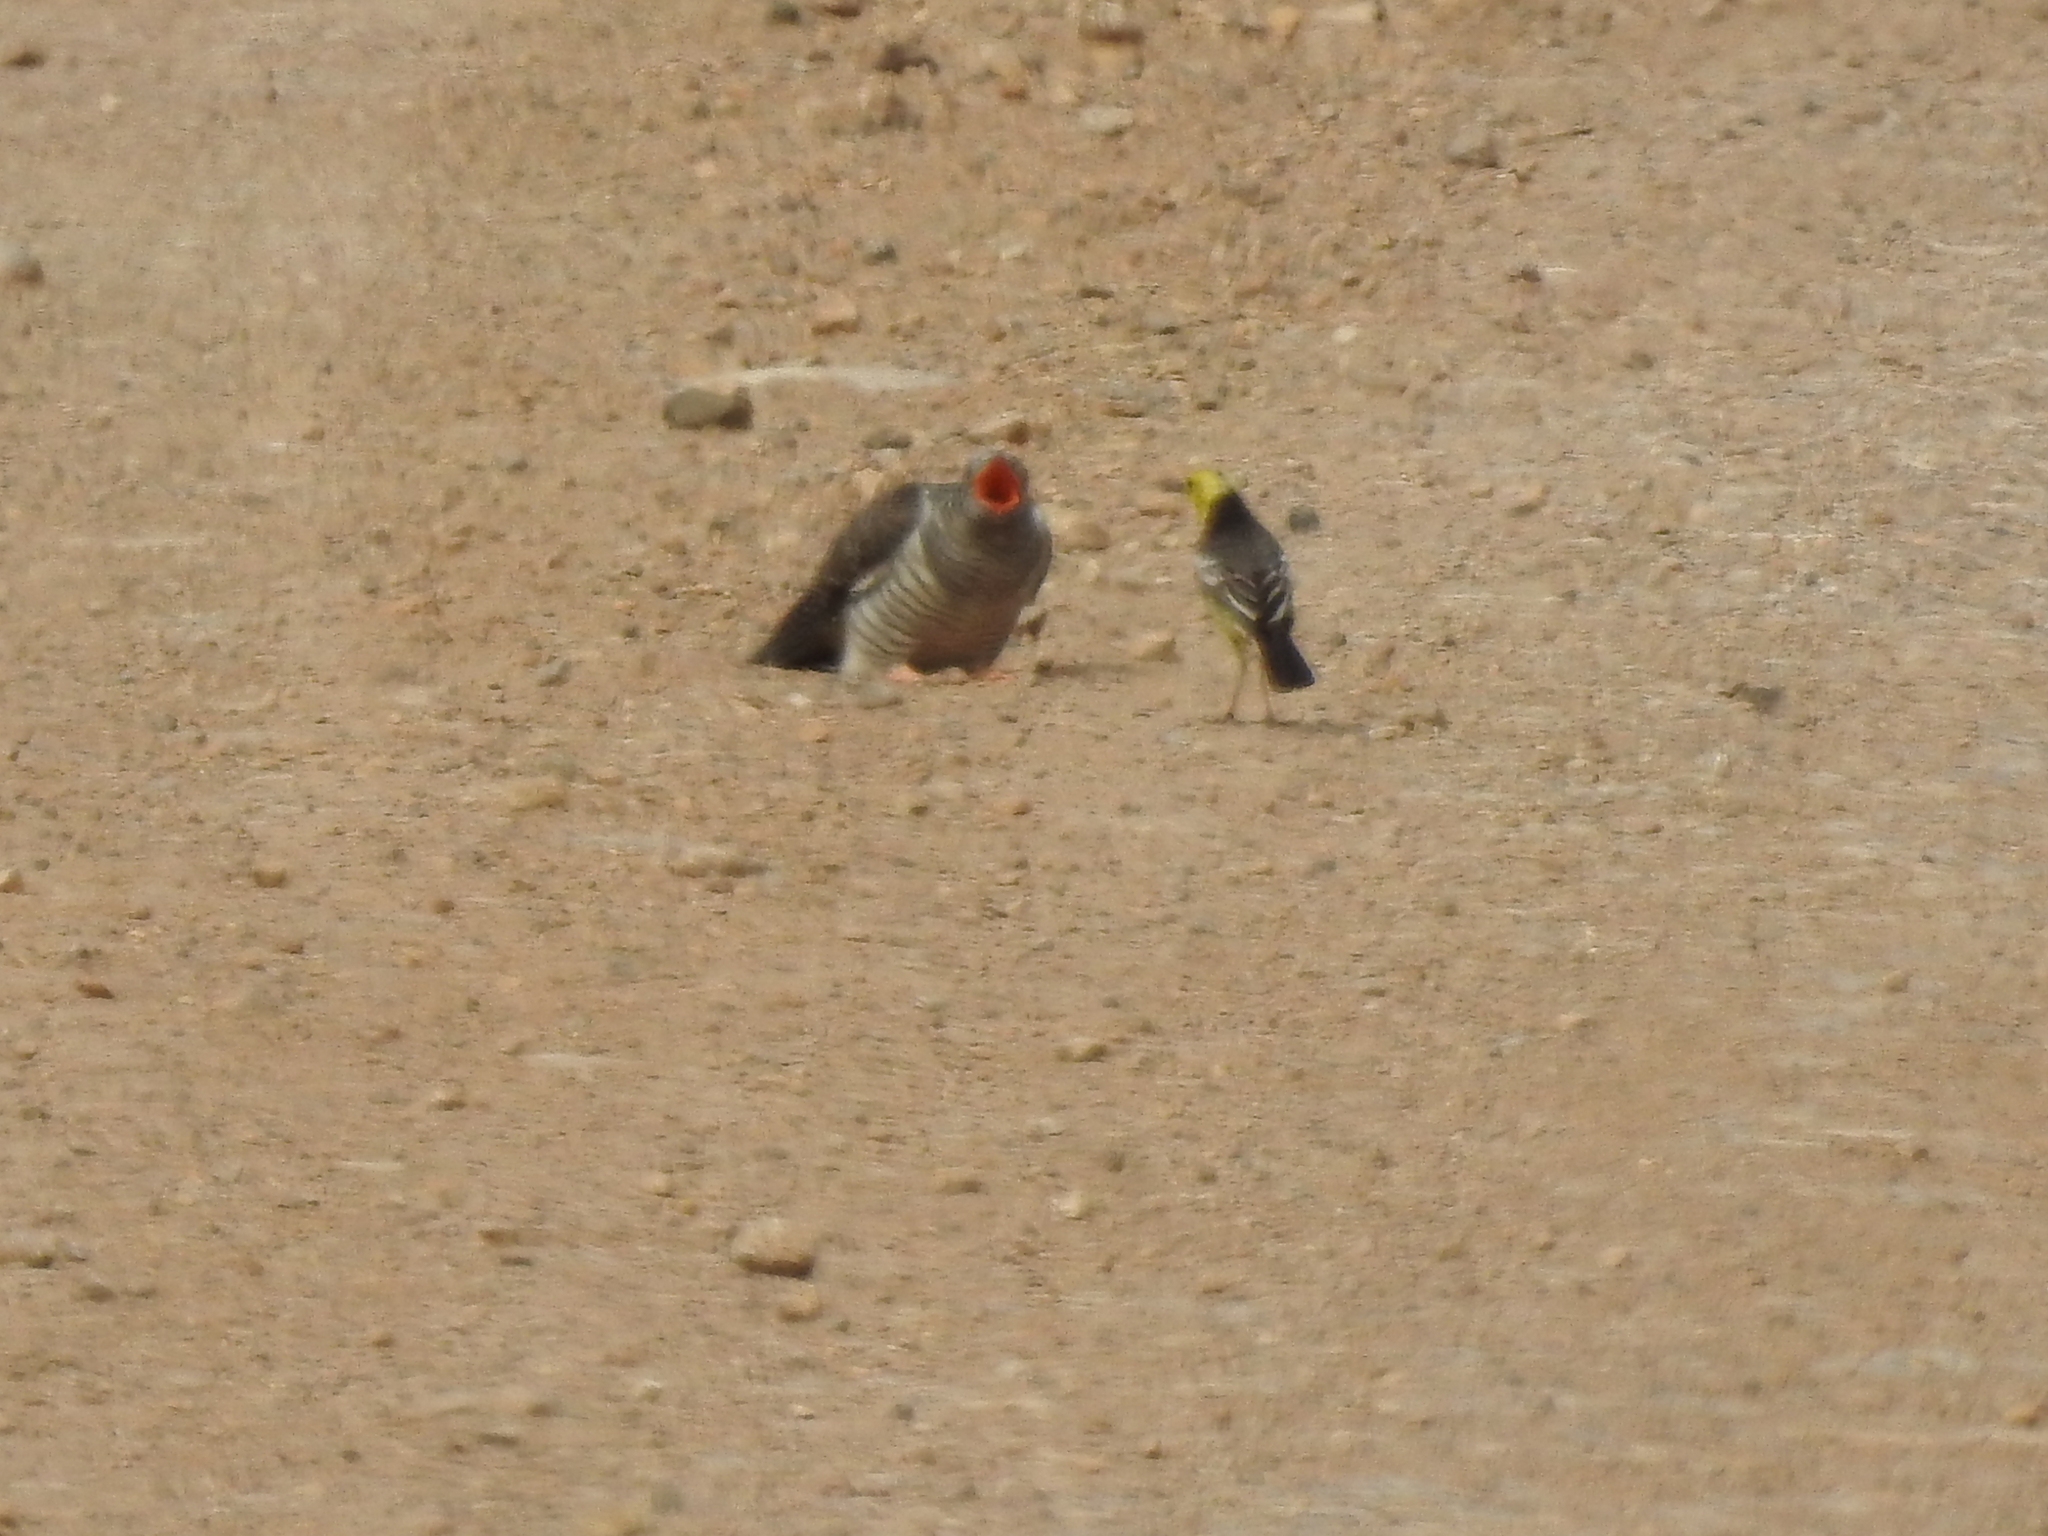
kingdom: Animalia
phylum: Chordata
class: Aves
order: Cuculiformes
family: Cuculidae
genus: Cuculus
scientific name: Cuculus canorus
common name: Common cuckoo
